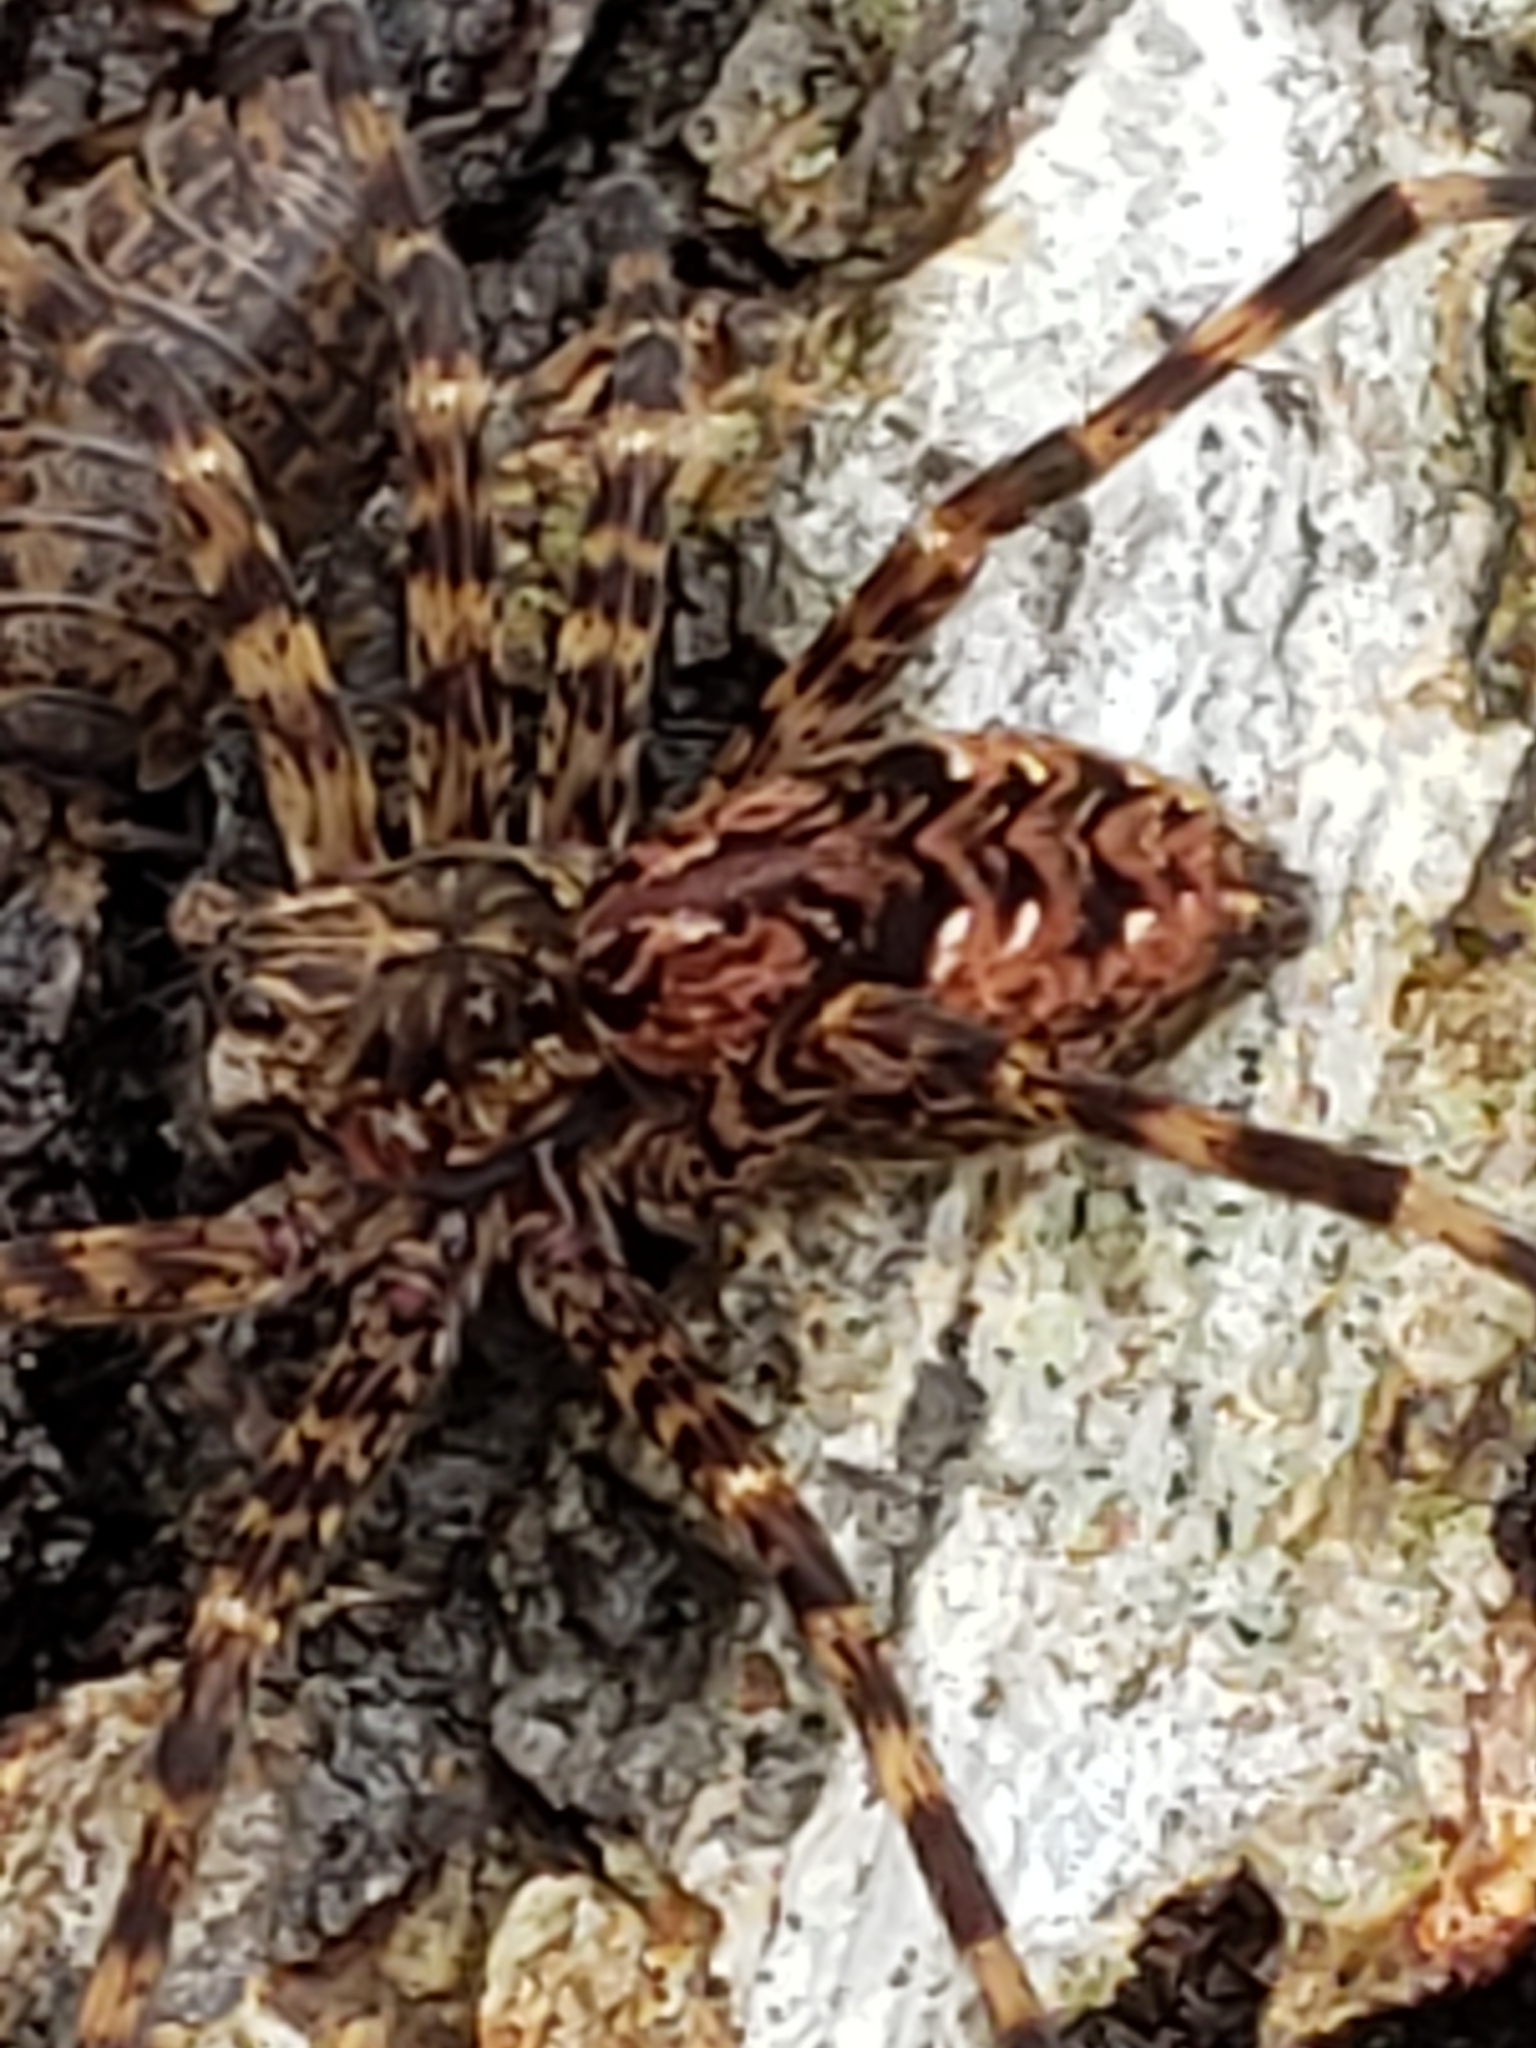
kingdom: Animalia
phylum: Arthropoda
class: Arachnida
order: Araneae
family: Pisauridae
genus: Dolomedes
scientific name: Dolomedes tenebrosus
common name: Dark fishing spider
